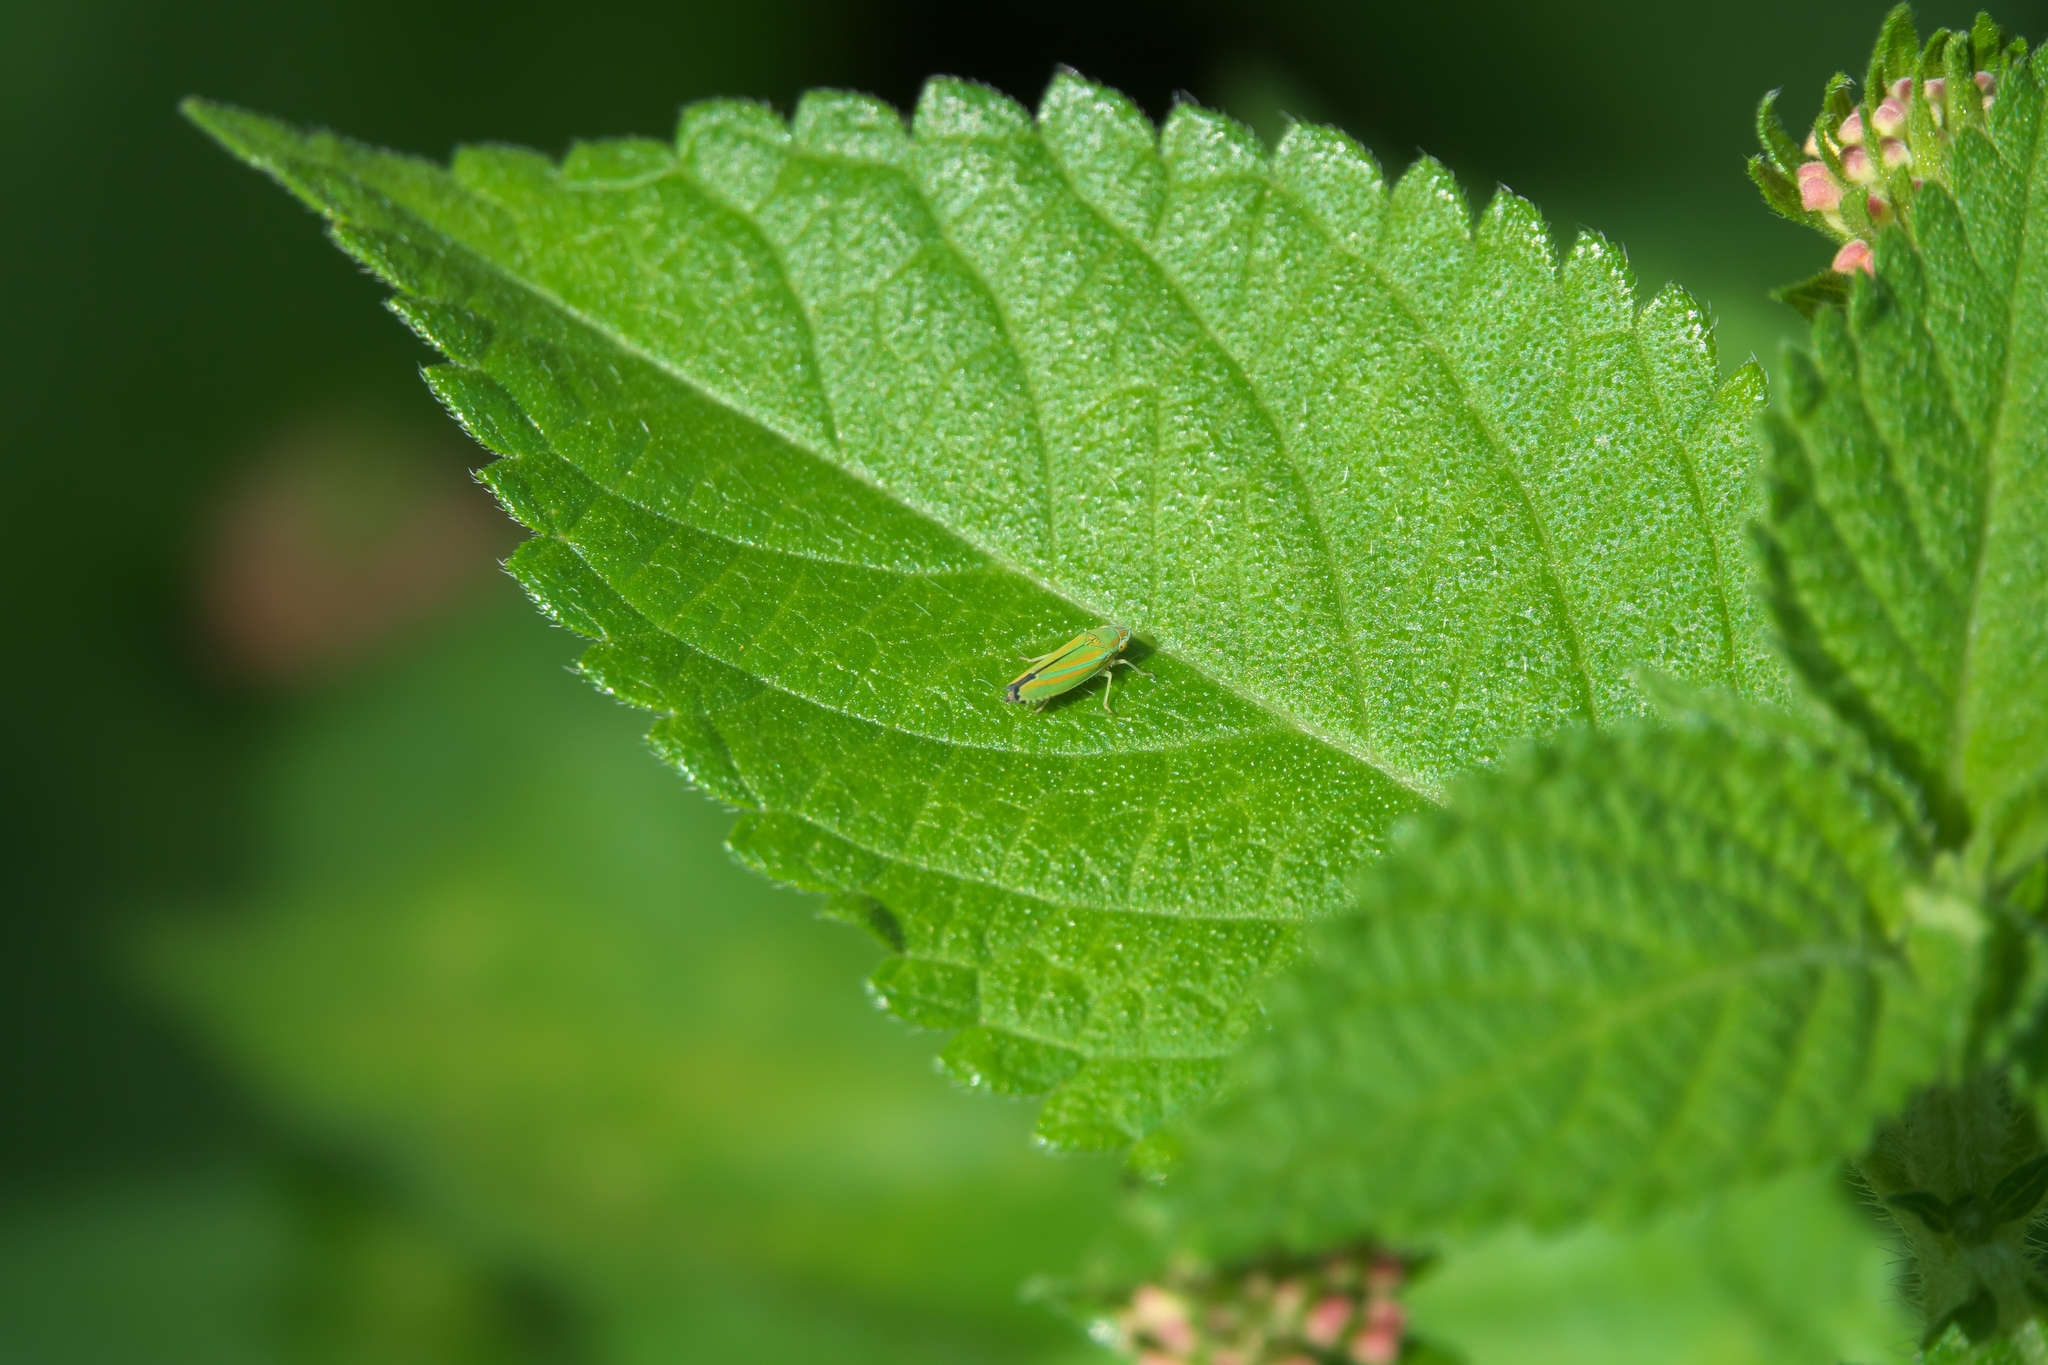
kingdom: Animalia
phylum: Arthropoda
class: Insecta
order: Hemiptera
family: Cicadellidae
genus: Graphocephala
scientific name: Graphocephala versuta
